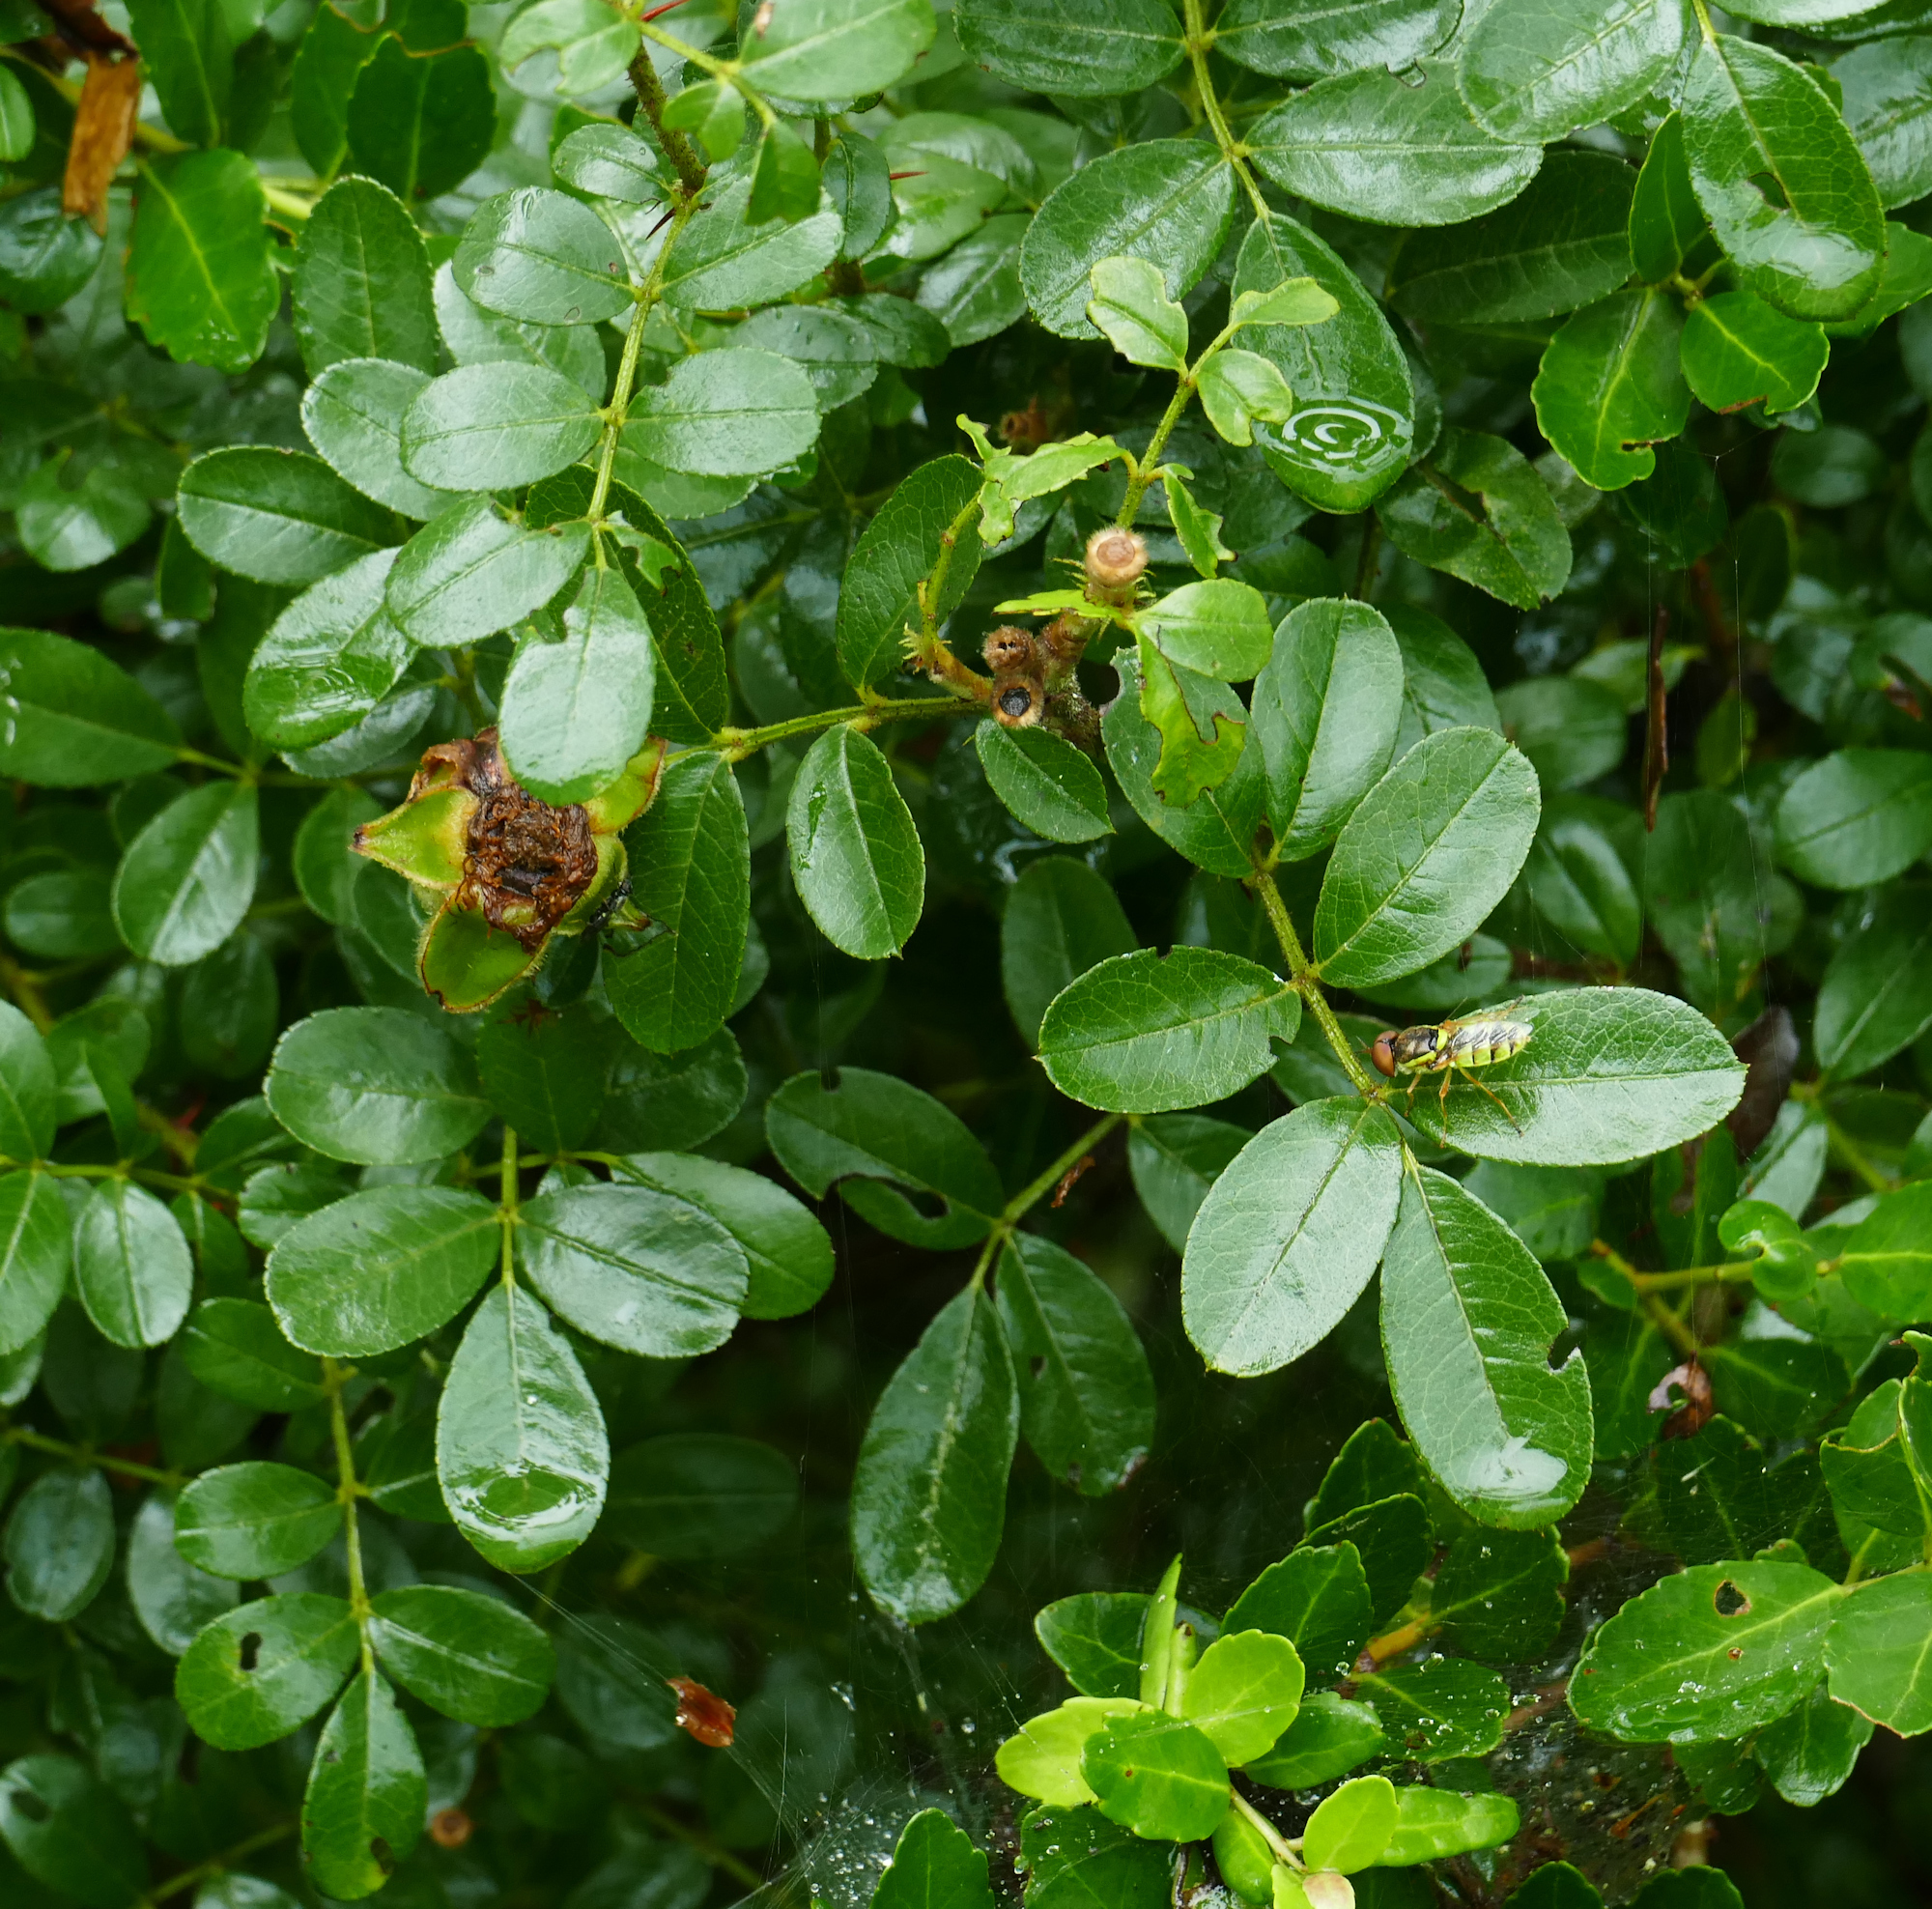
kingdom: Plantae
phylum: Tracheophyta
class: Magnoliopsida
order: Rosales
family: Rosaceae
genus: Rosa
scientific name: Rosa bracteata
